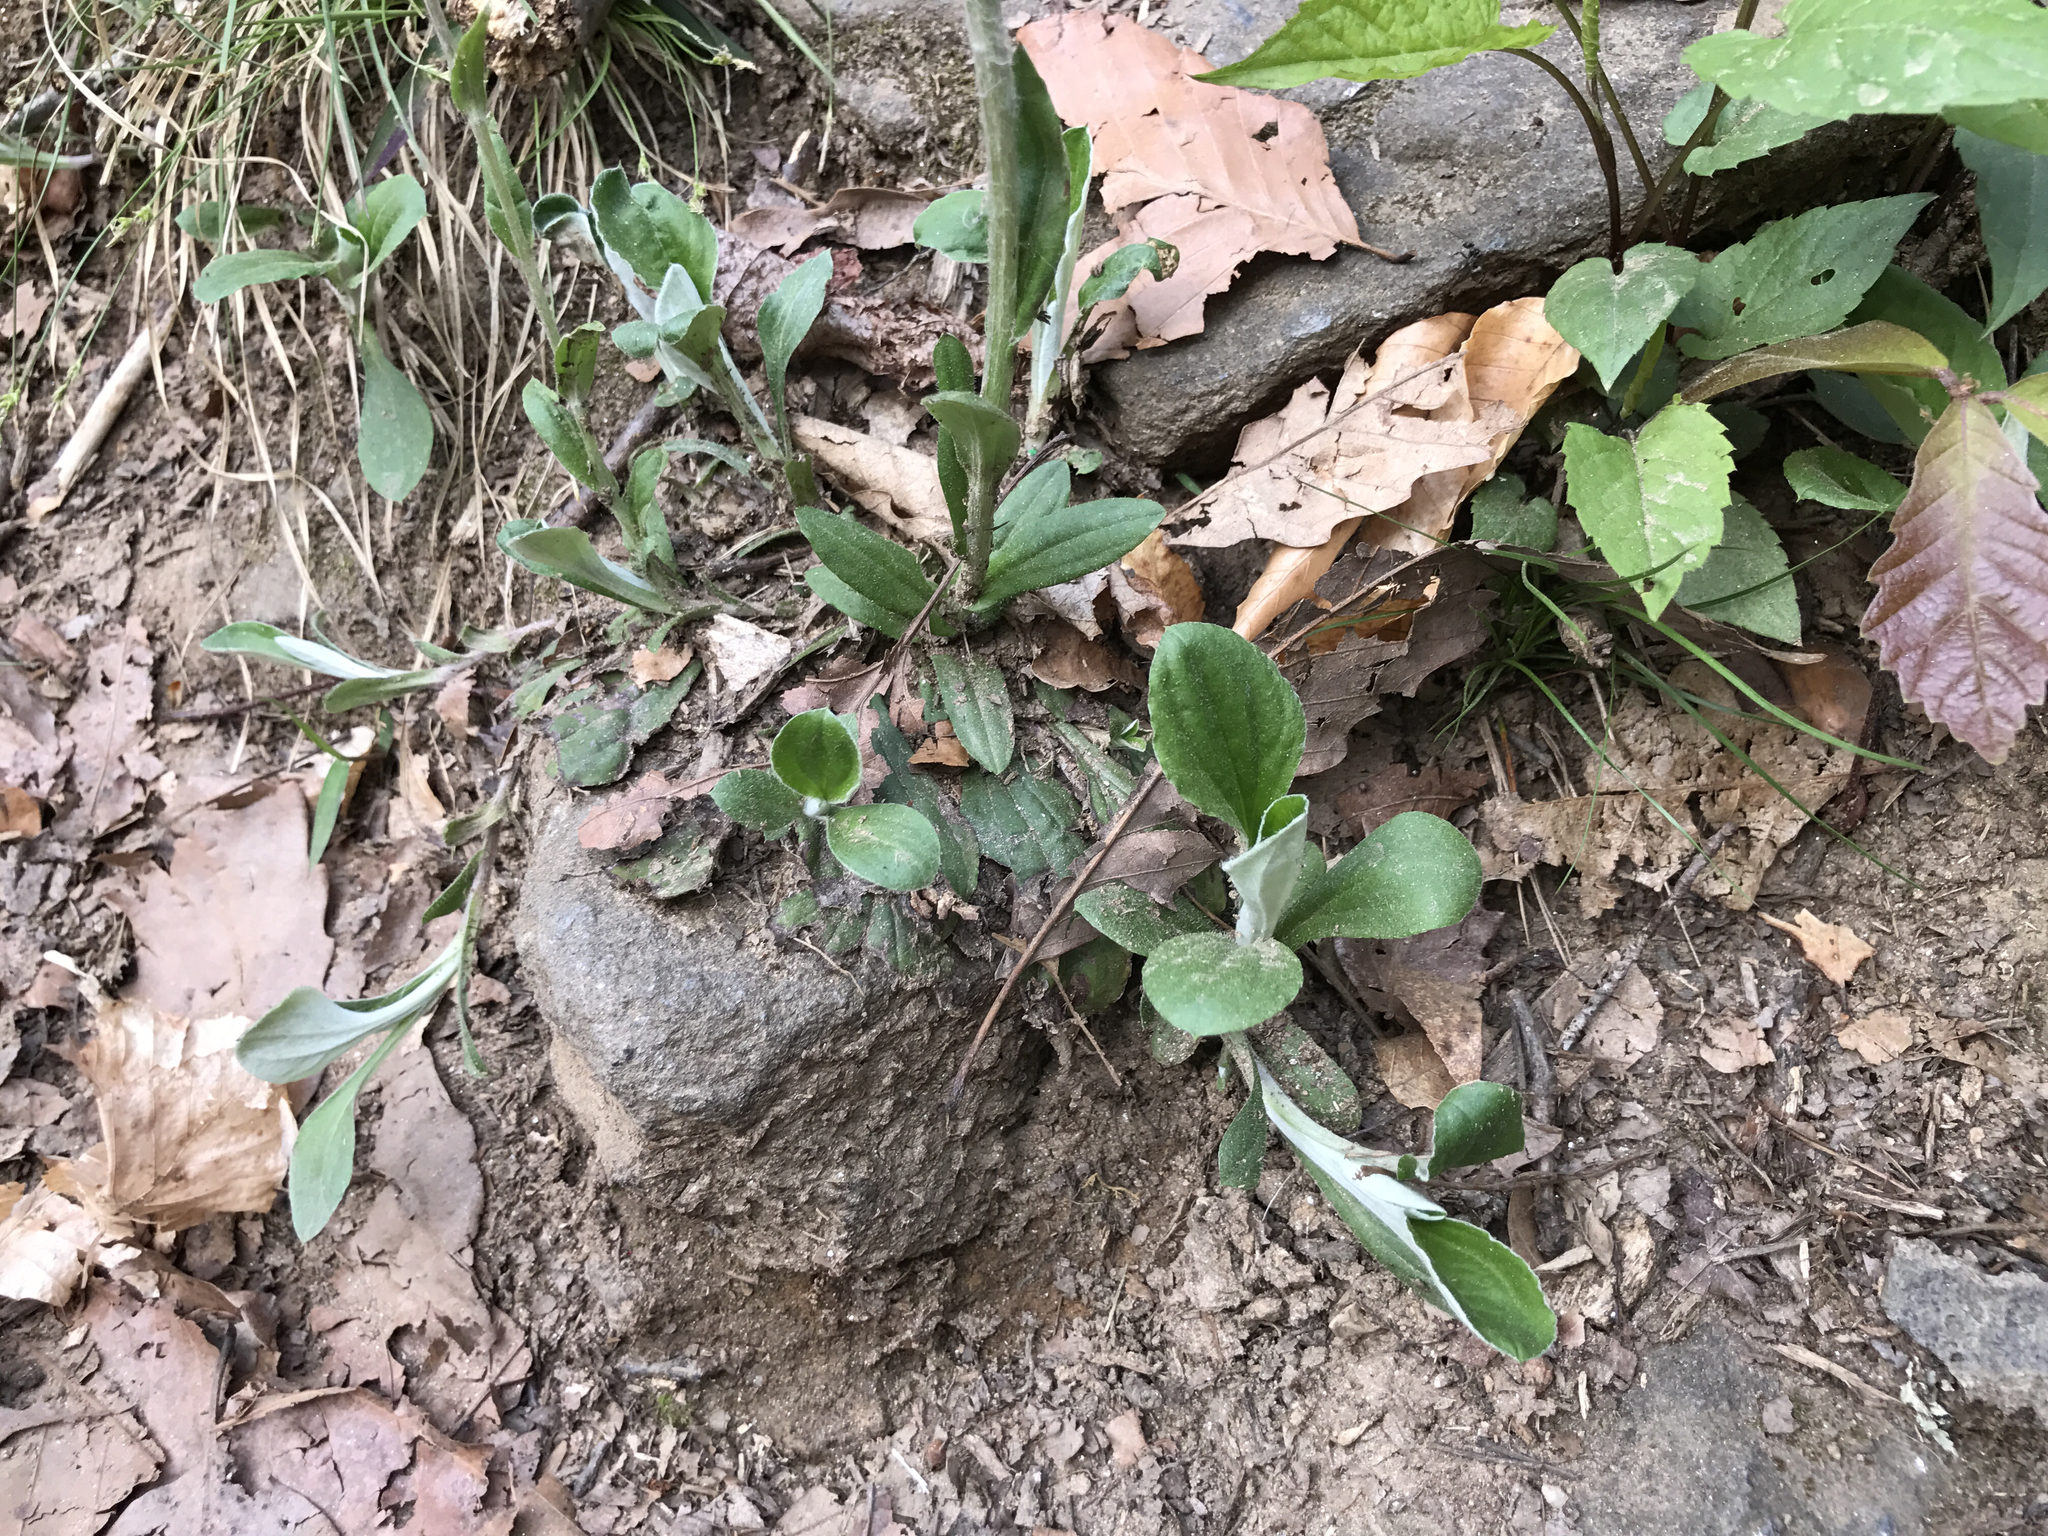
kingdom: Plantae
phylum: Tracheophyta
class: Magnoliopsida
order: Asterales
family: Asteraceae
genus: Antennaria
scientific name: Antennaria plantaginifolia
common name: Plantain-leaved pussytoes
